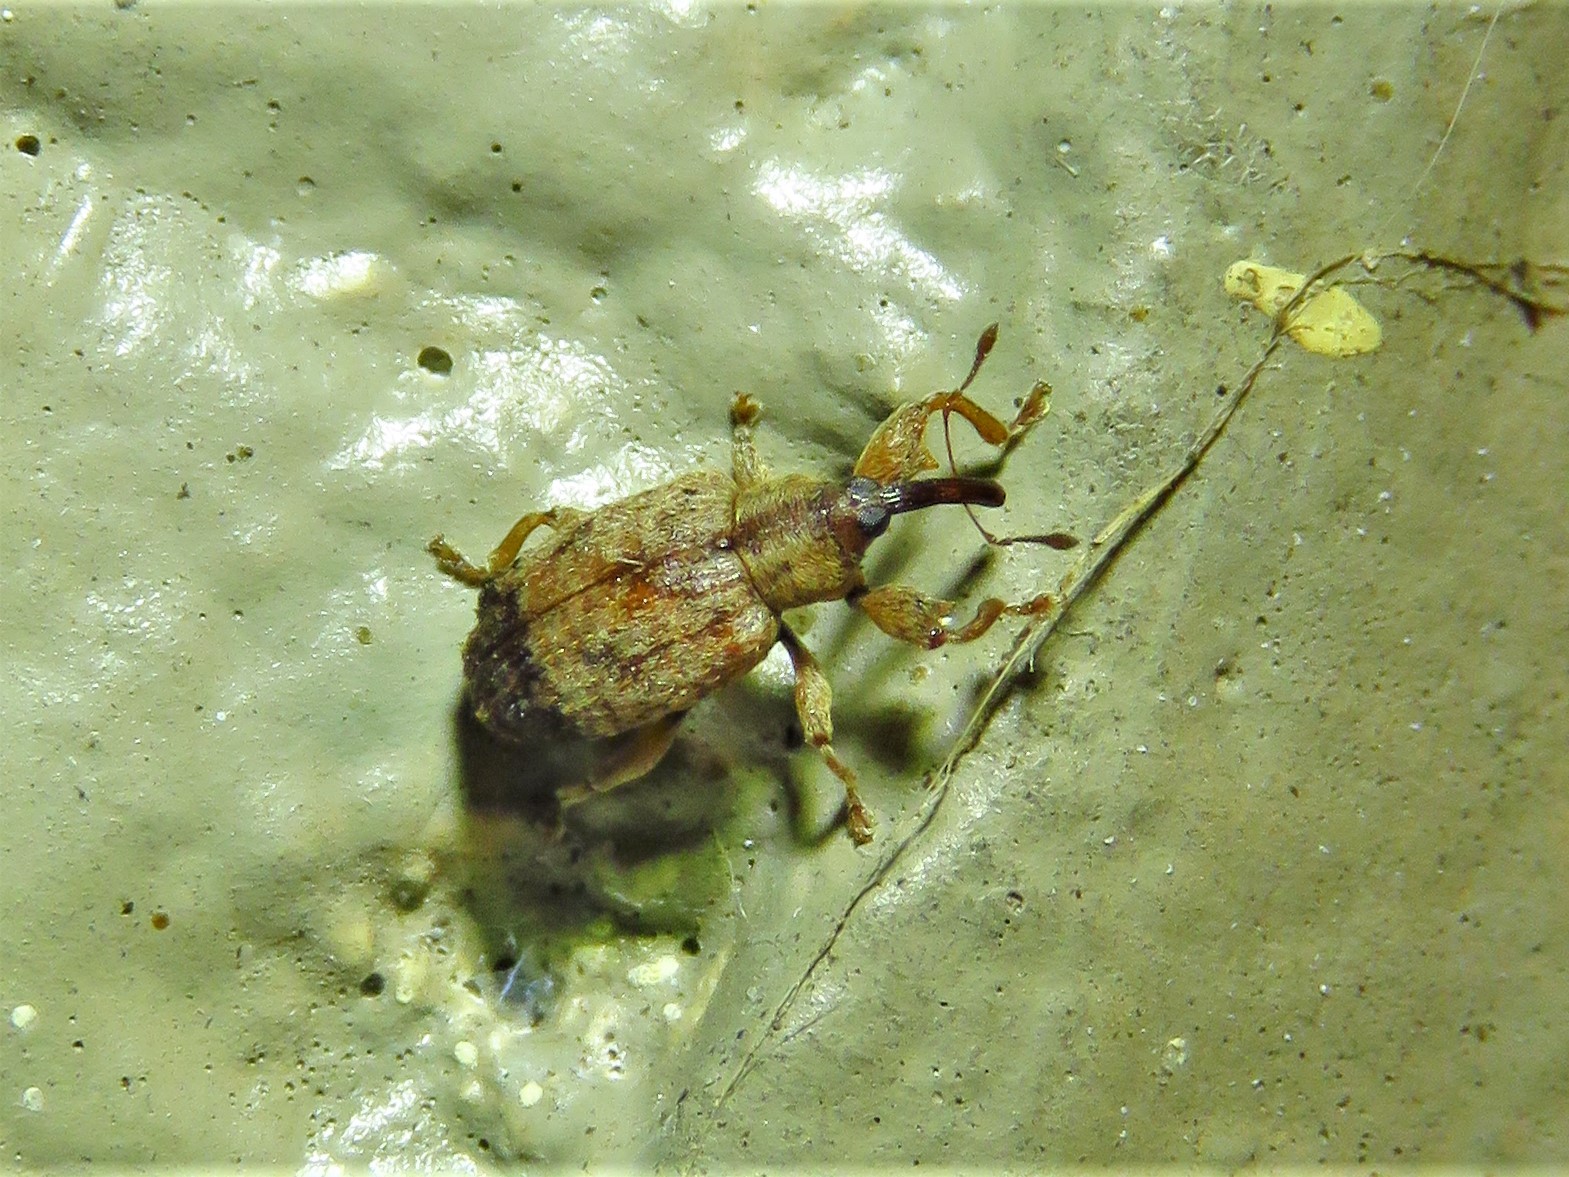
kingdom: Animalia
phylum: Arthropoda
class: Insecta
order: Coleoptera
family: Curculionidae
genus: Ochyromera
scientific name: Ochyromera ligustri
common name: Weevil
